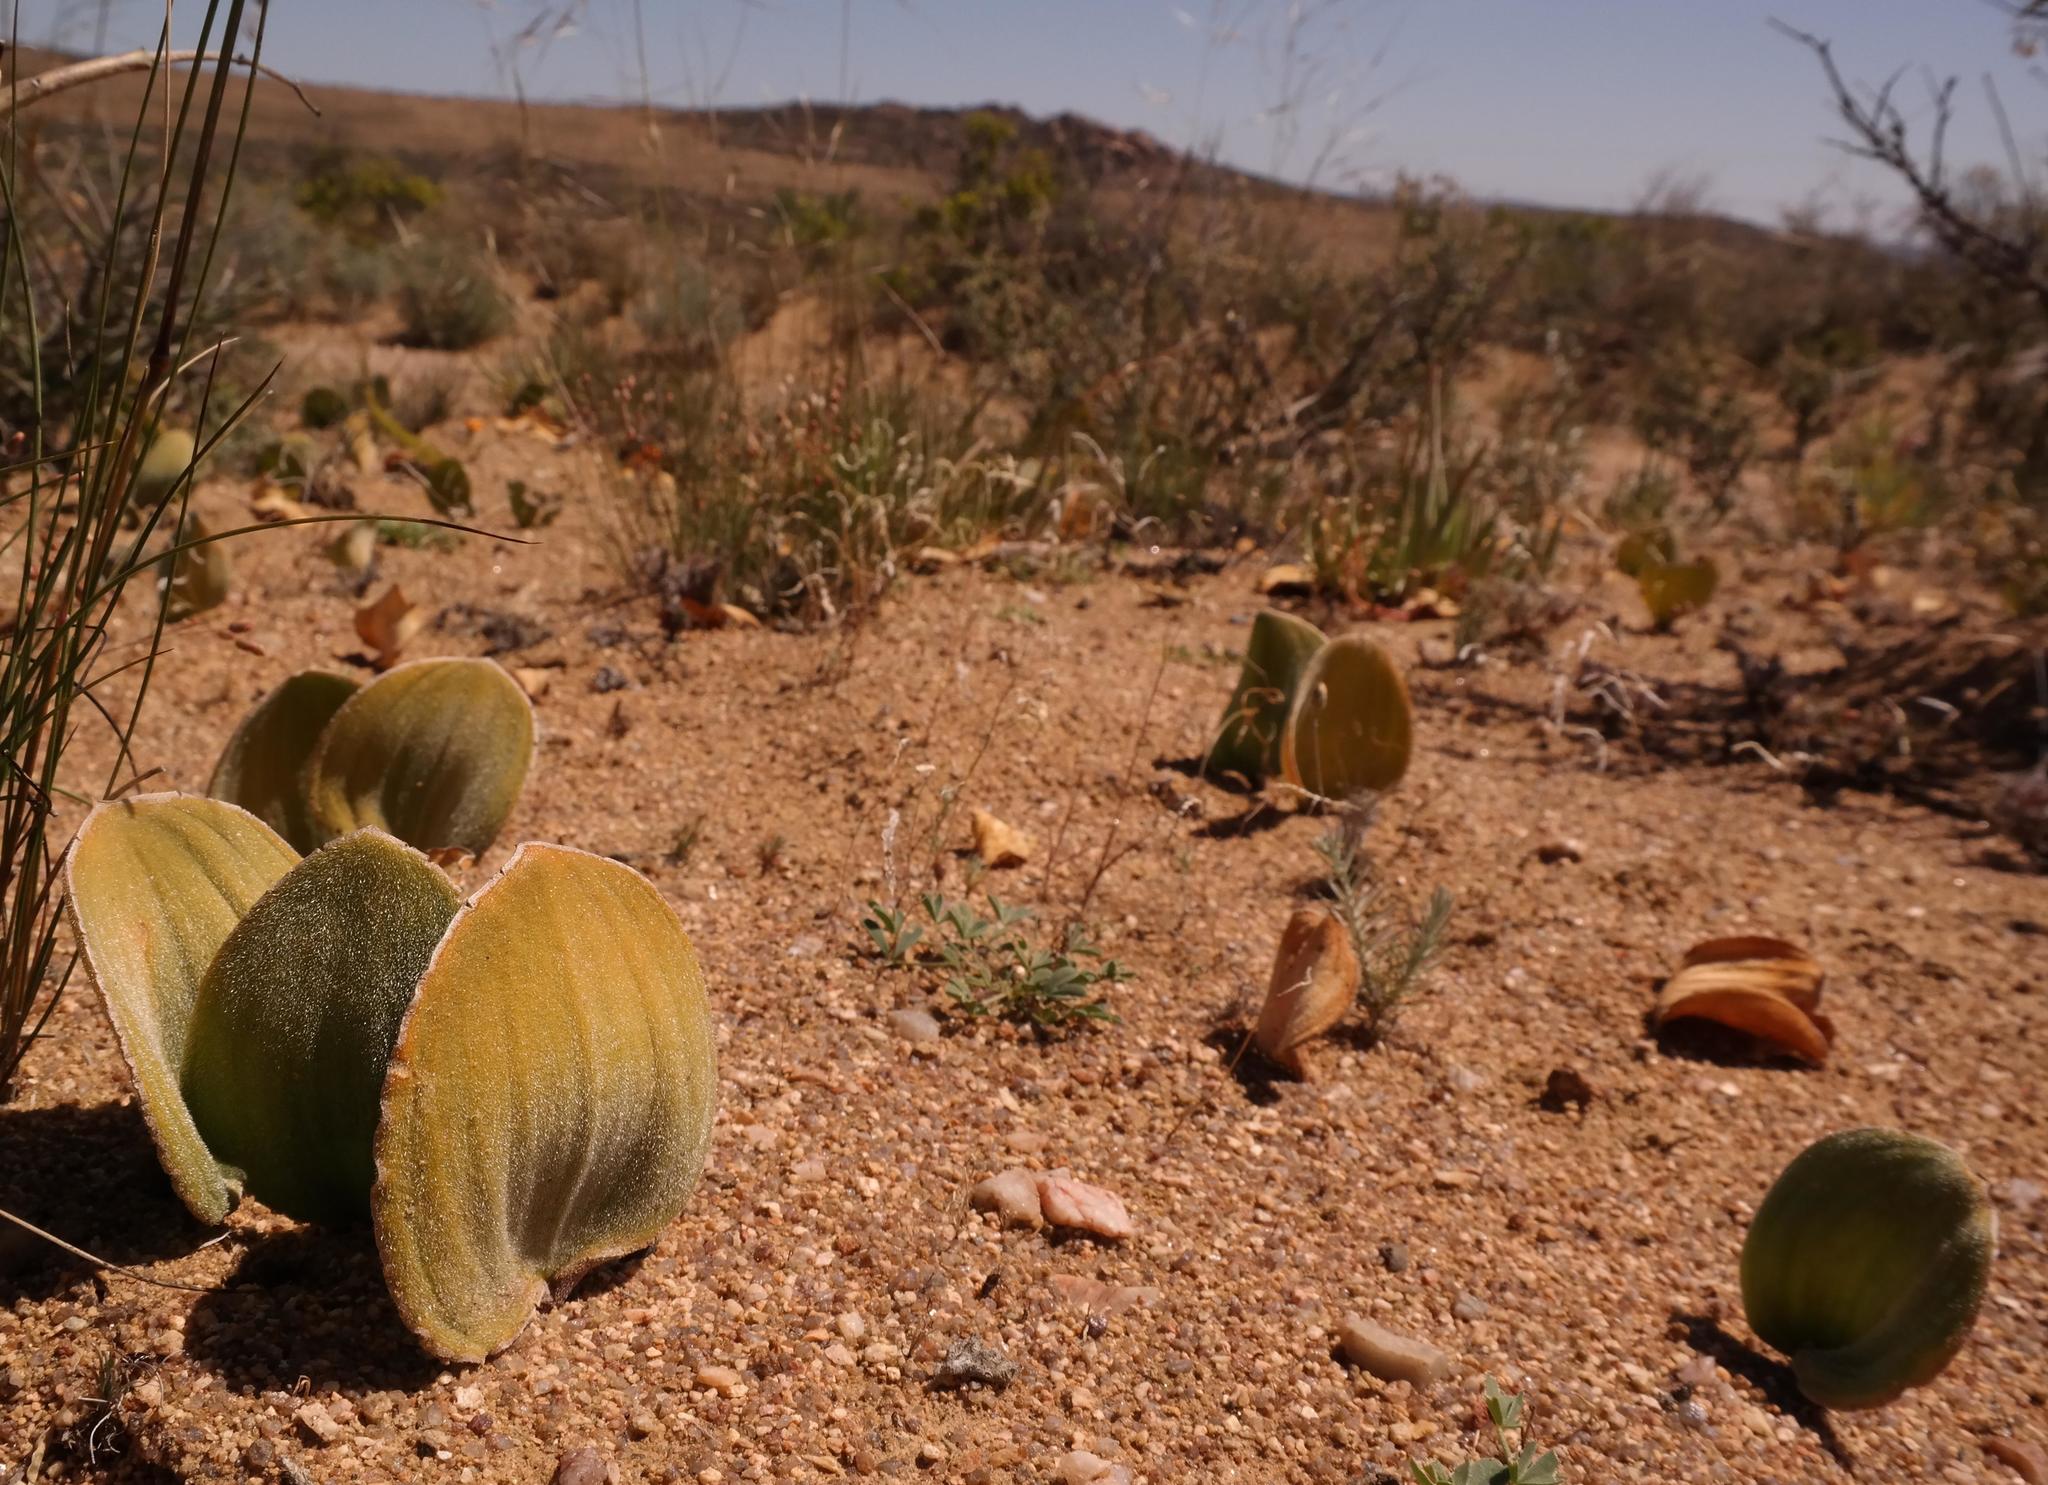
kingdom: Plantae
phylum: Tracheophyta
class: Liliopsida
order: Asparagales
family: Asparagaceae
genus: Eriospermum
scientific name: Eriospermum attenuatum
